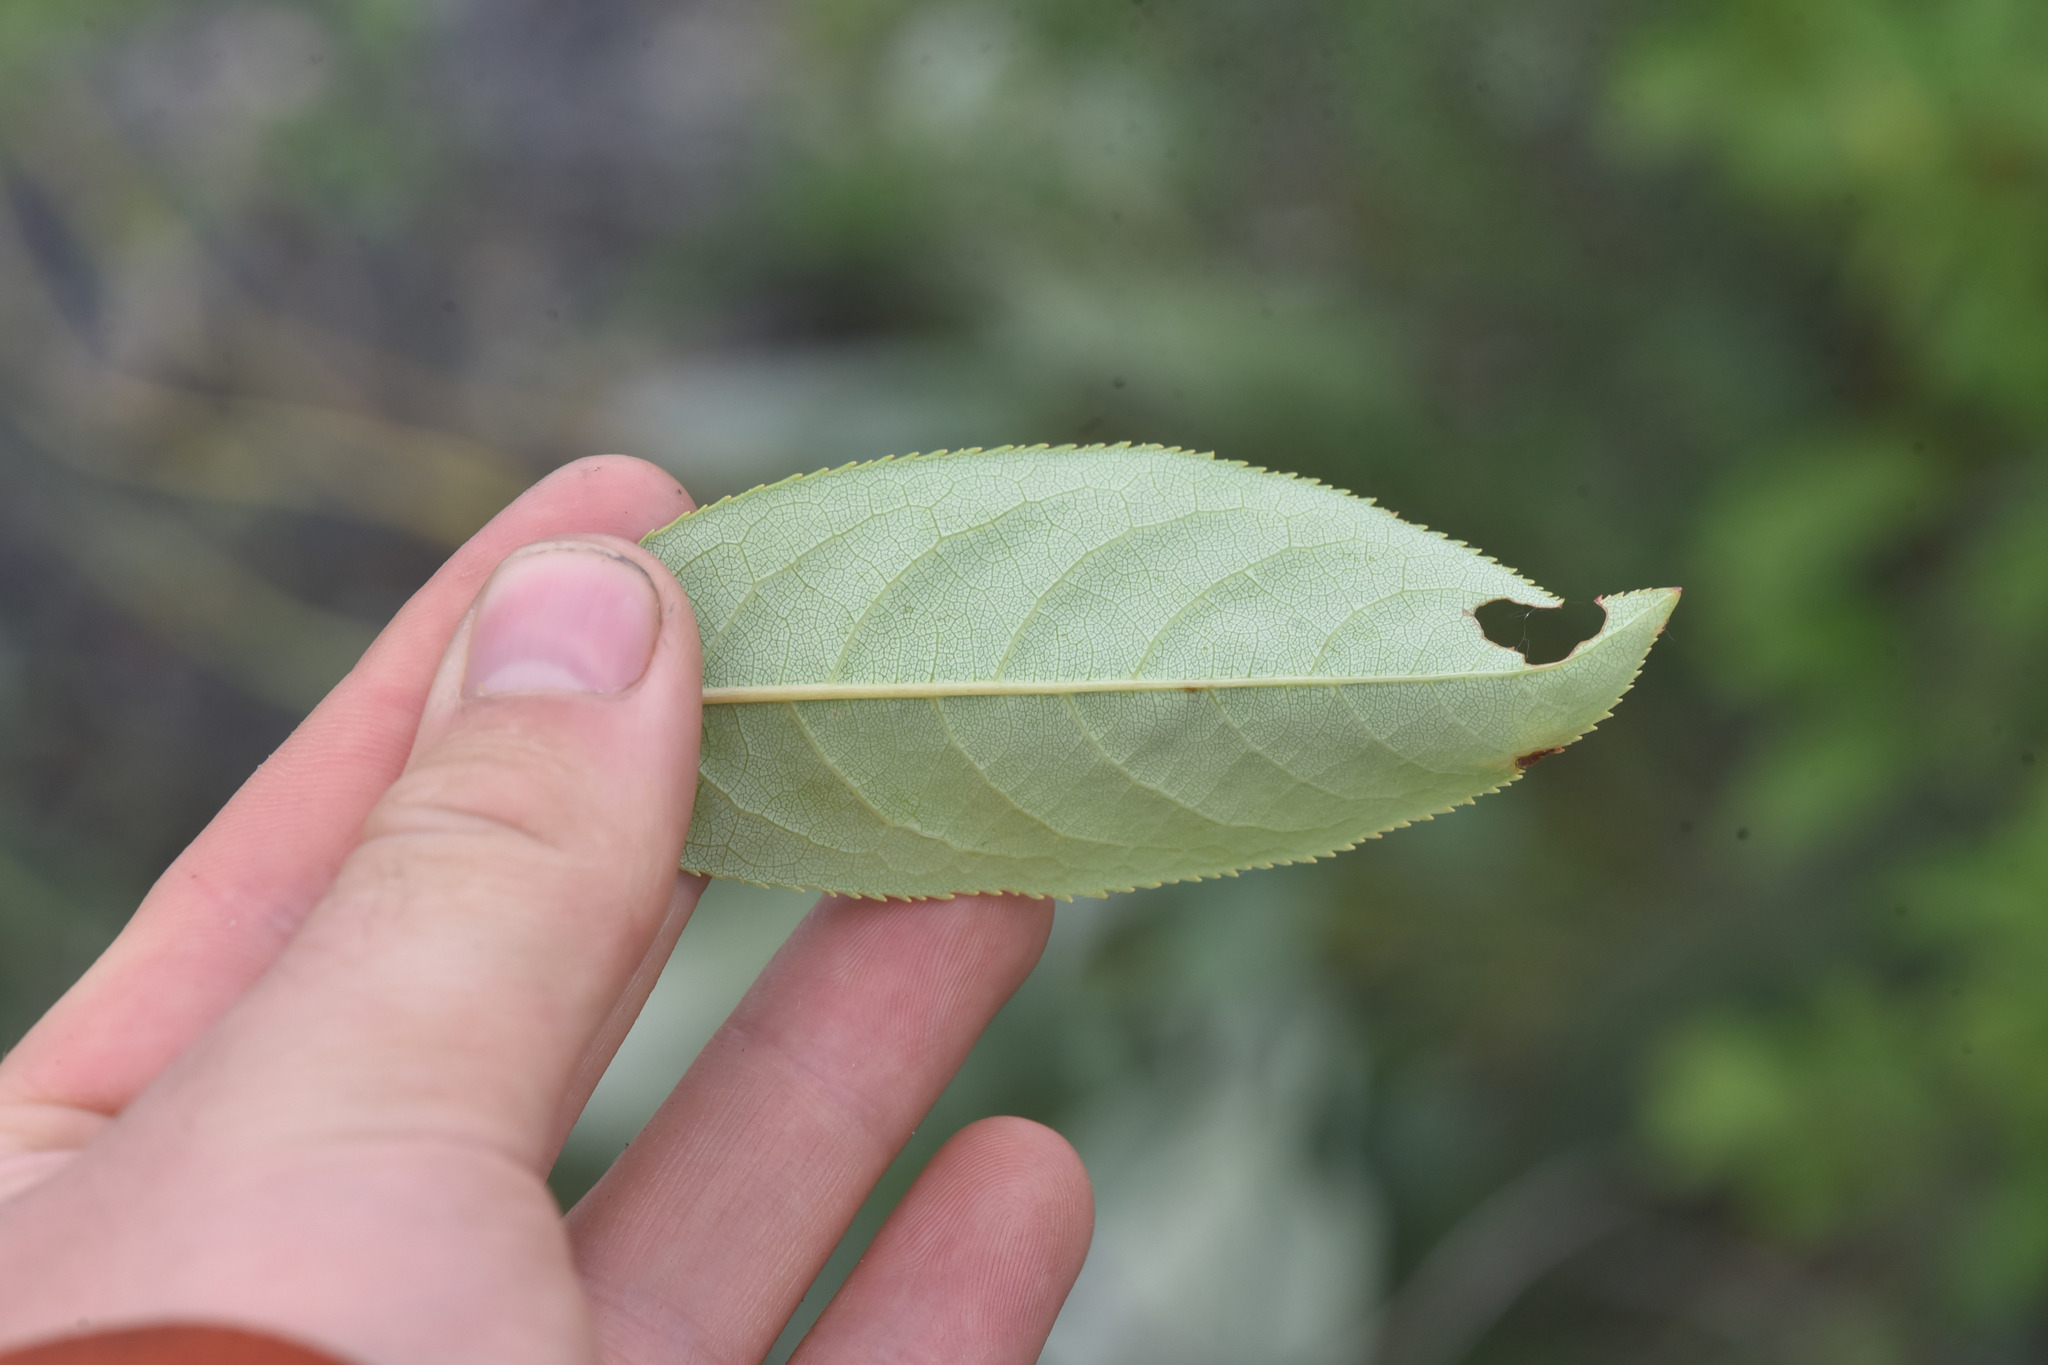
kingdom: Plantae
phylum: Tracheophyta
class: Magnoliopsida
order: Rosales
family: Rosaceae
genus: Prunus
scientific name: Prunus virginiana
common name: Chokecherry
